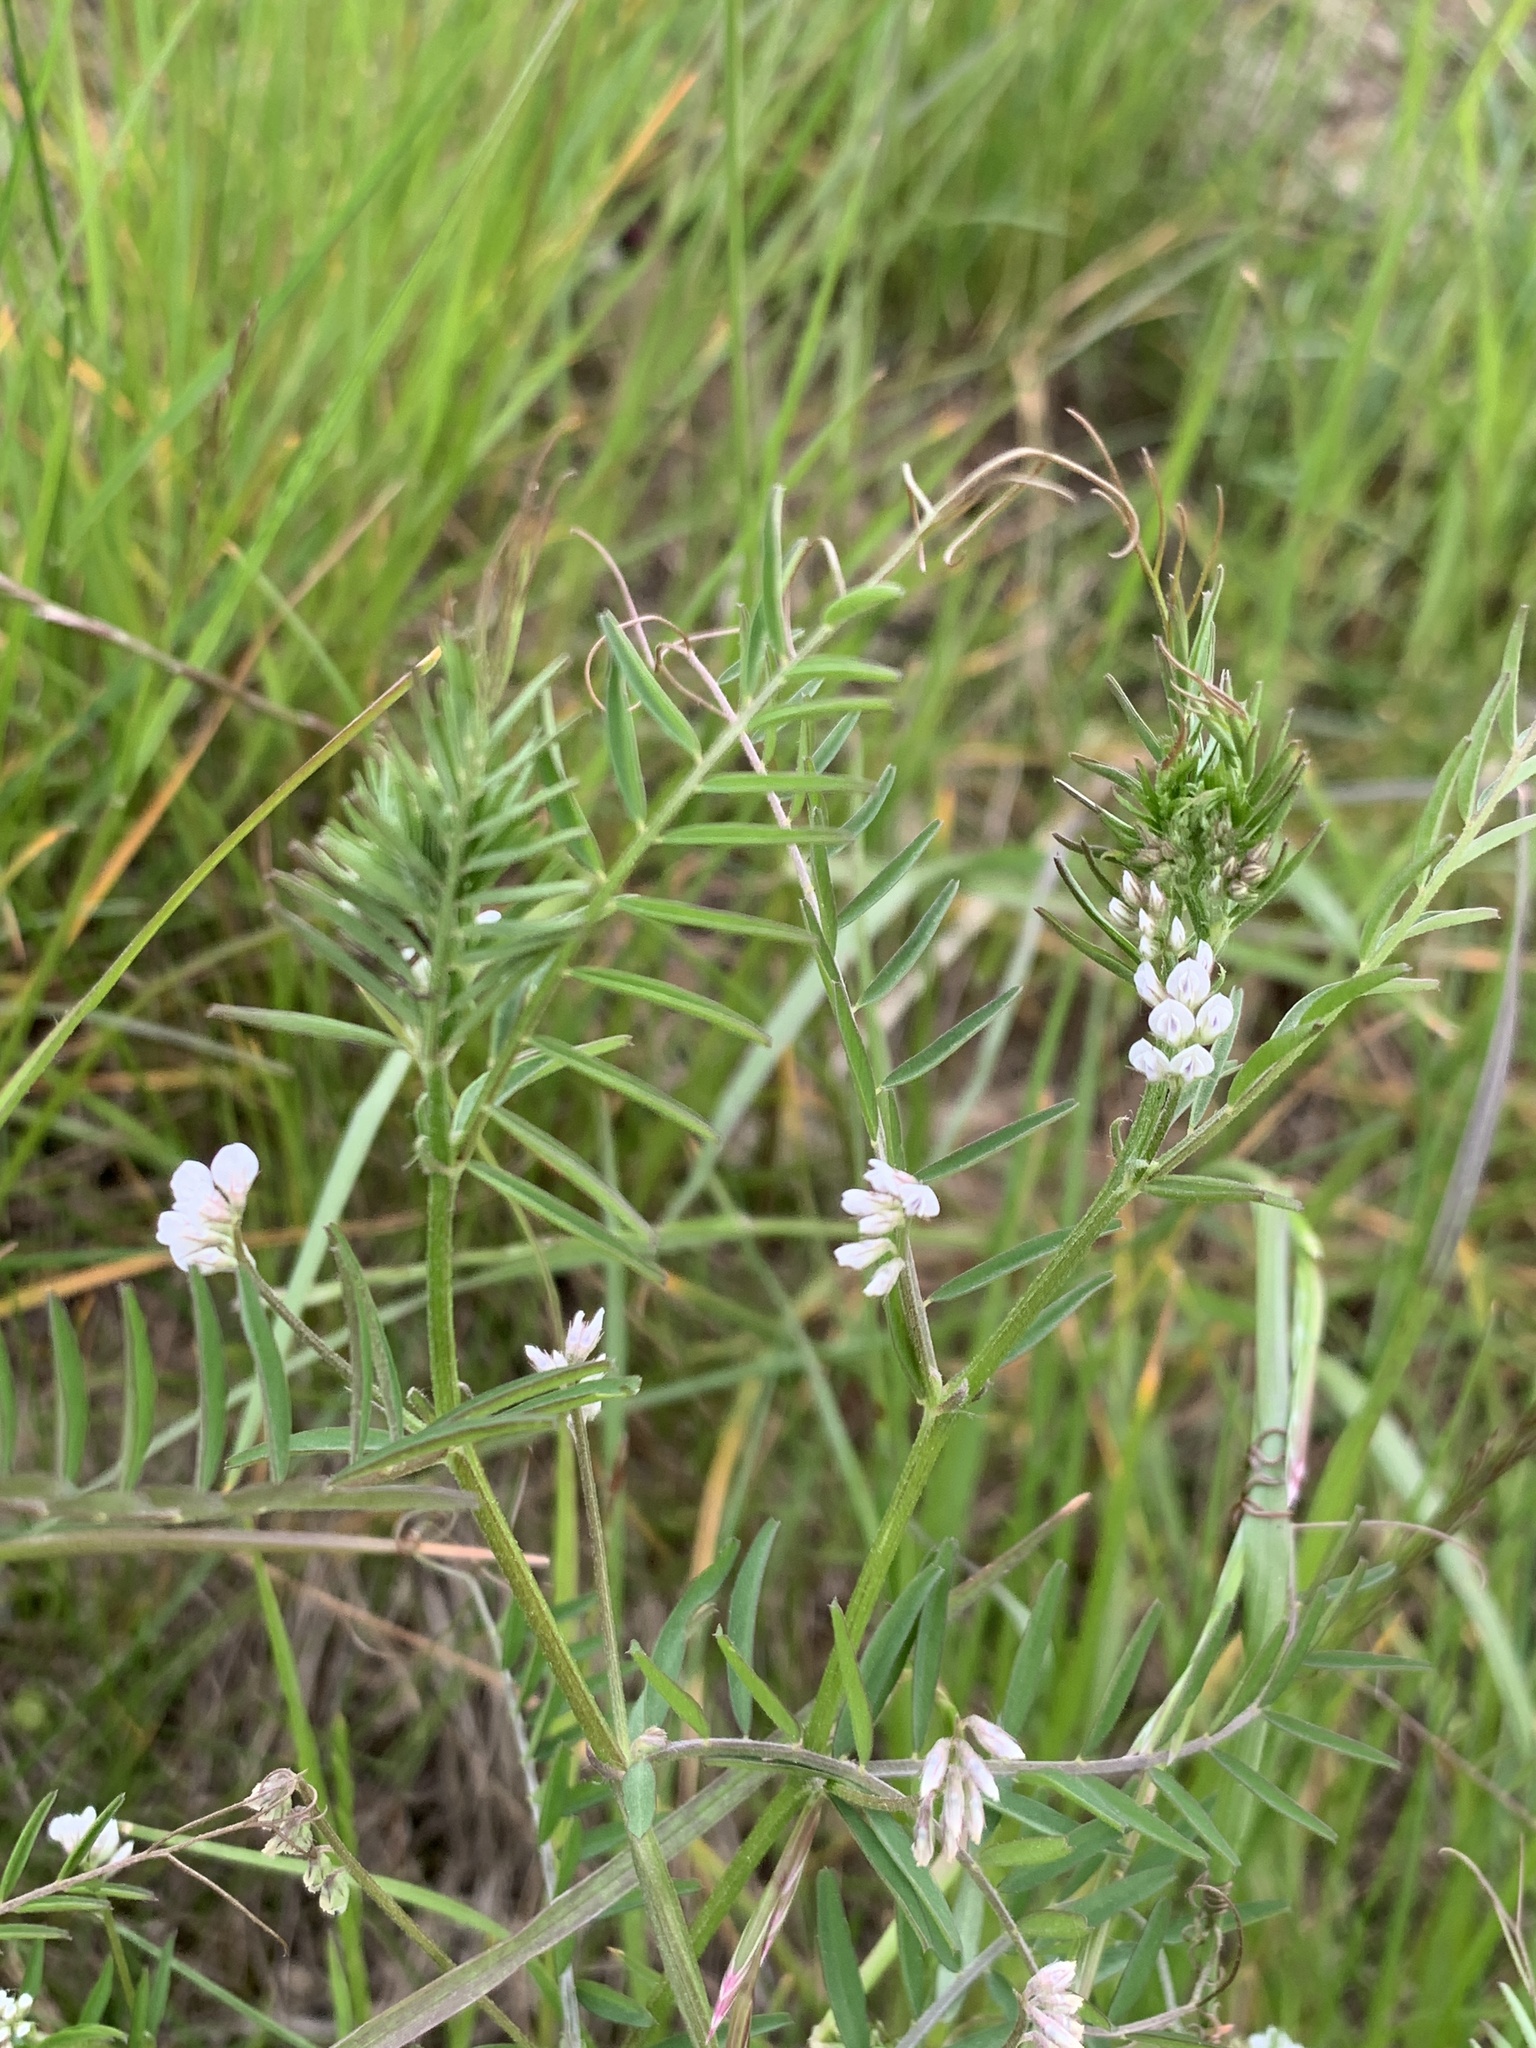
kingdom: Plantae
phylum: Tracheophyta
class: Magnoliopsida
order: Fabales
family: Fabaceae
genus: Vicia
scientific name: Vicia hirsuta
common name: Tiny vetch
